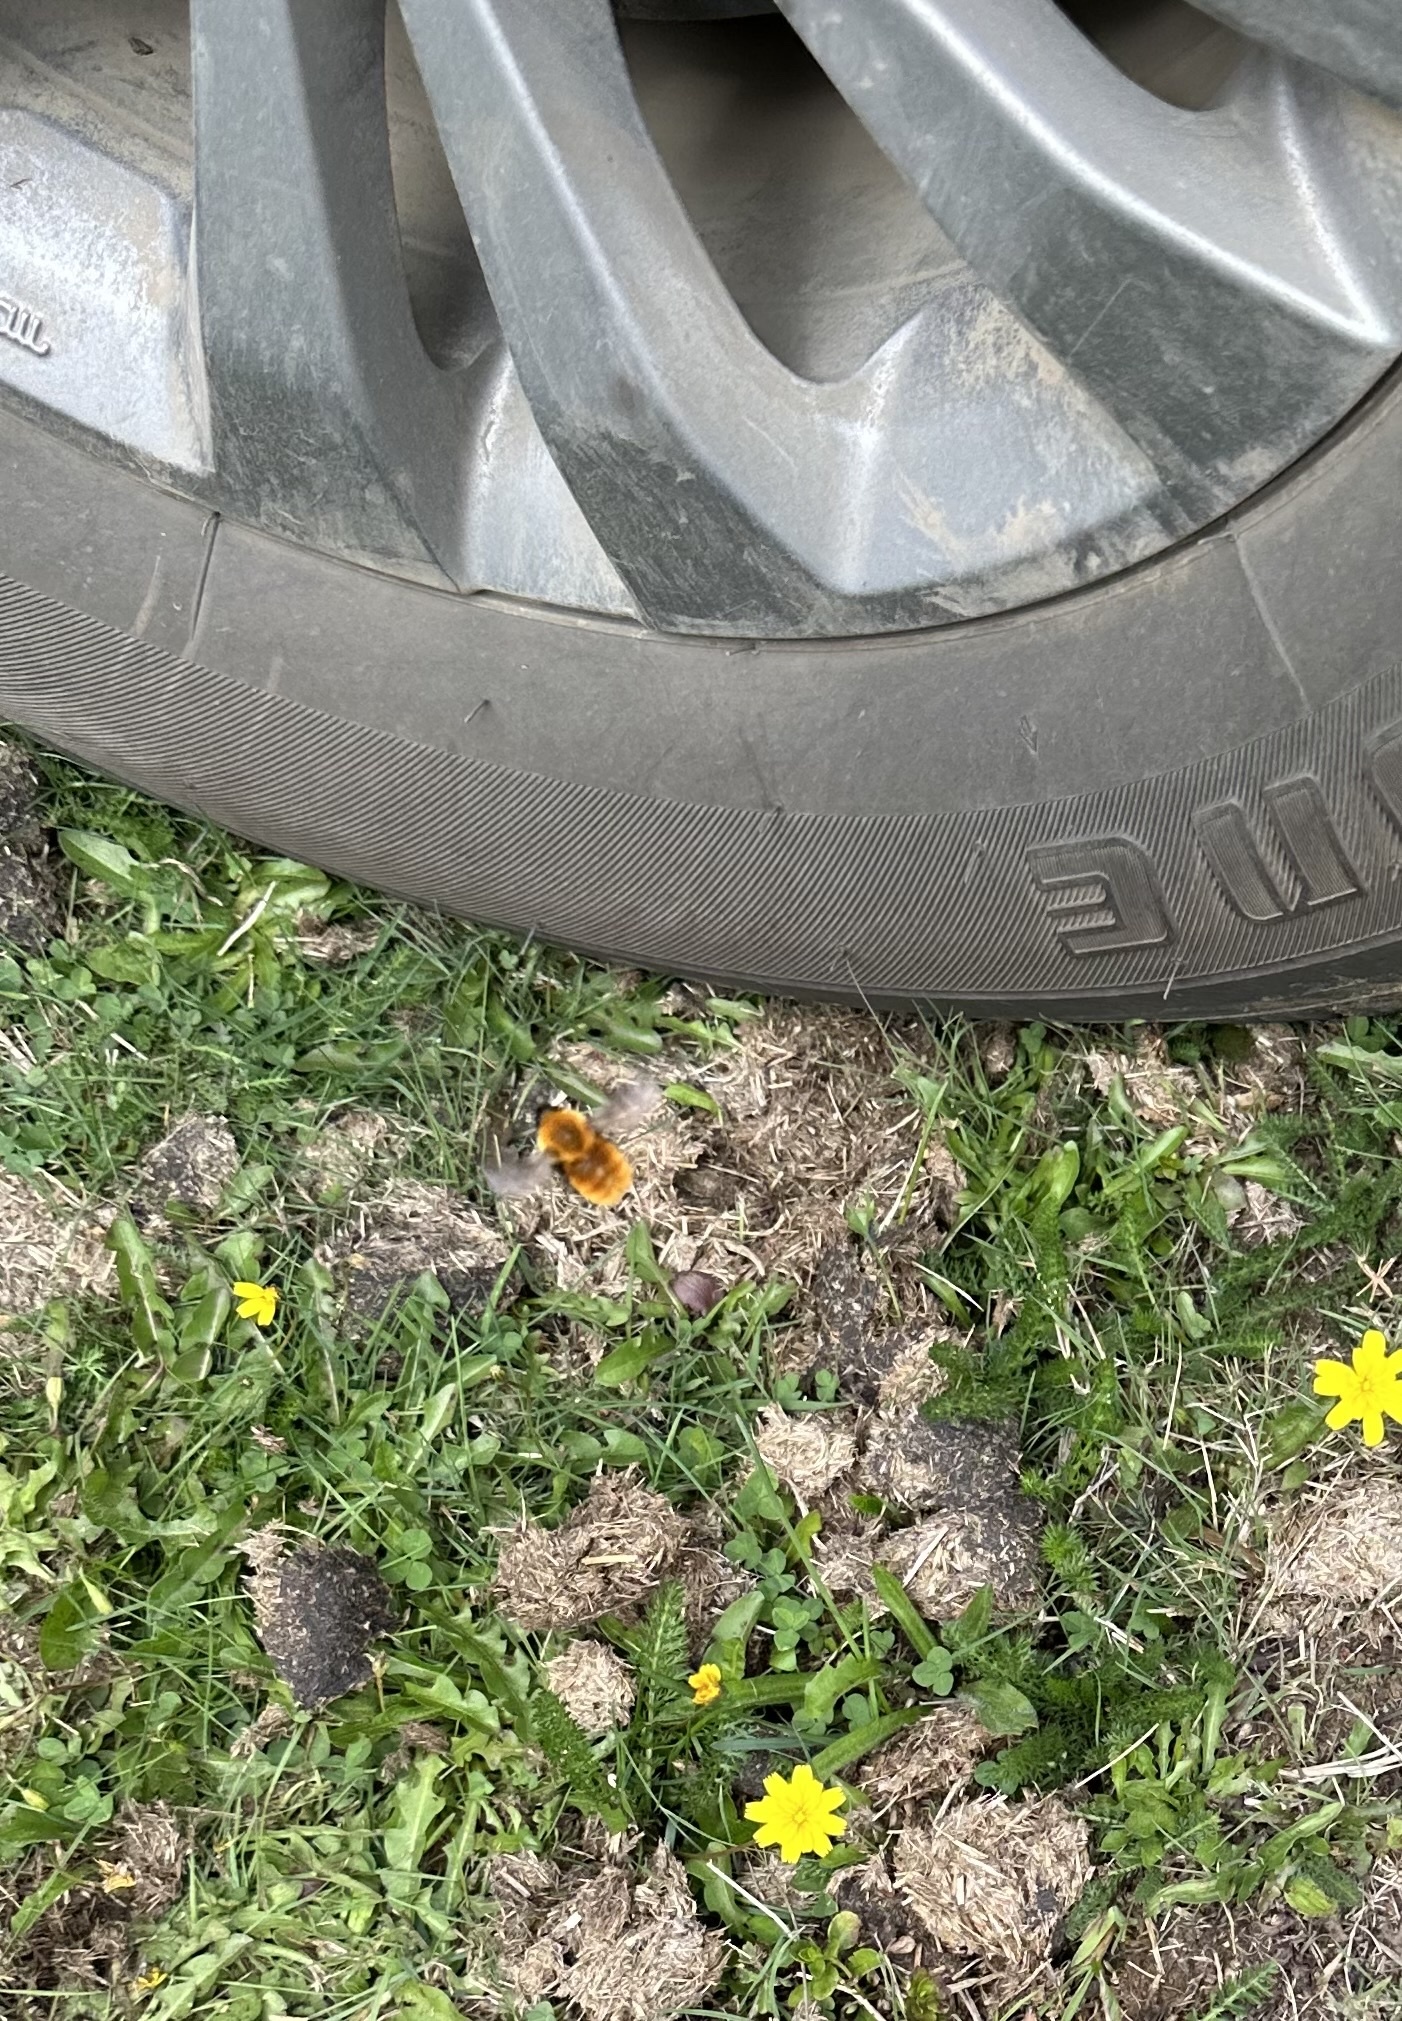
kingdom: Animalia
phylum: Arthropoda
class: Insecta
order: Hymenoptera
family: Apidae
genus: Bombus
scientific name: Bombus dahlbomii
